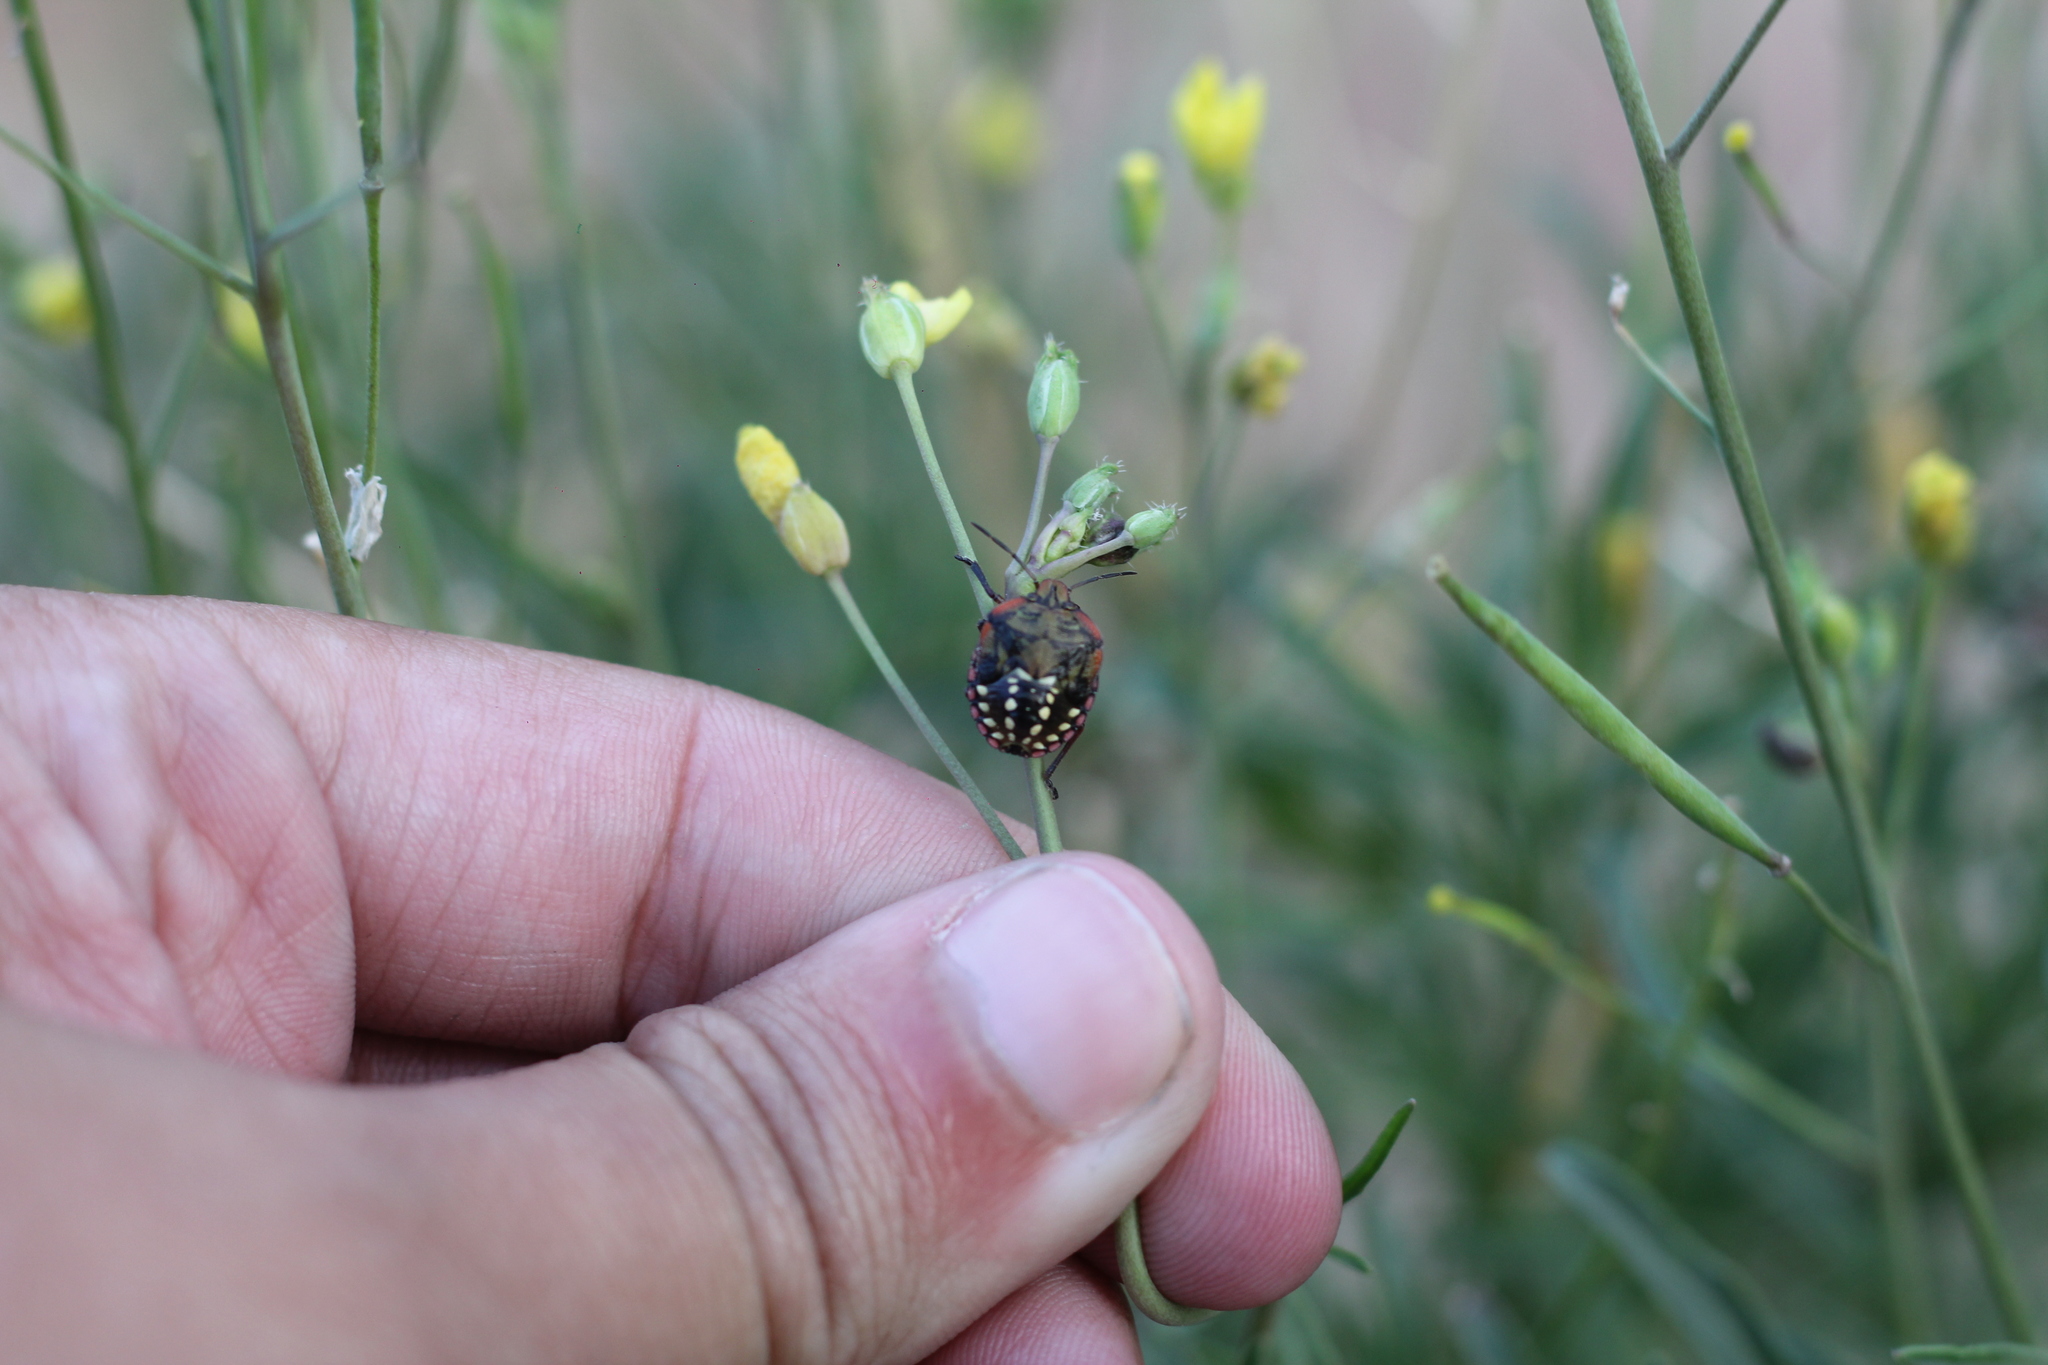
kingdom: Animalia
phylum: Arthropoda
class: Insecta
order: Hemiptera
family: Pentatomidae
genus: Nezara
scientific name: Nezara viridula
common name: Southern green stink bug
